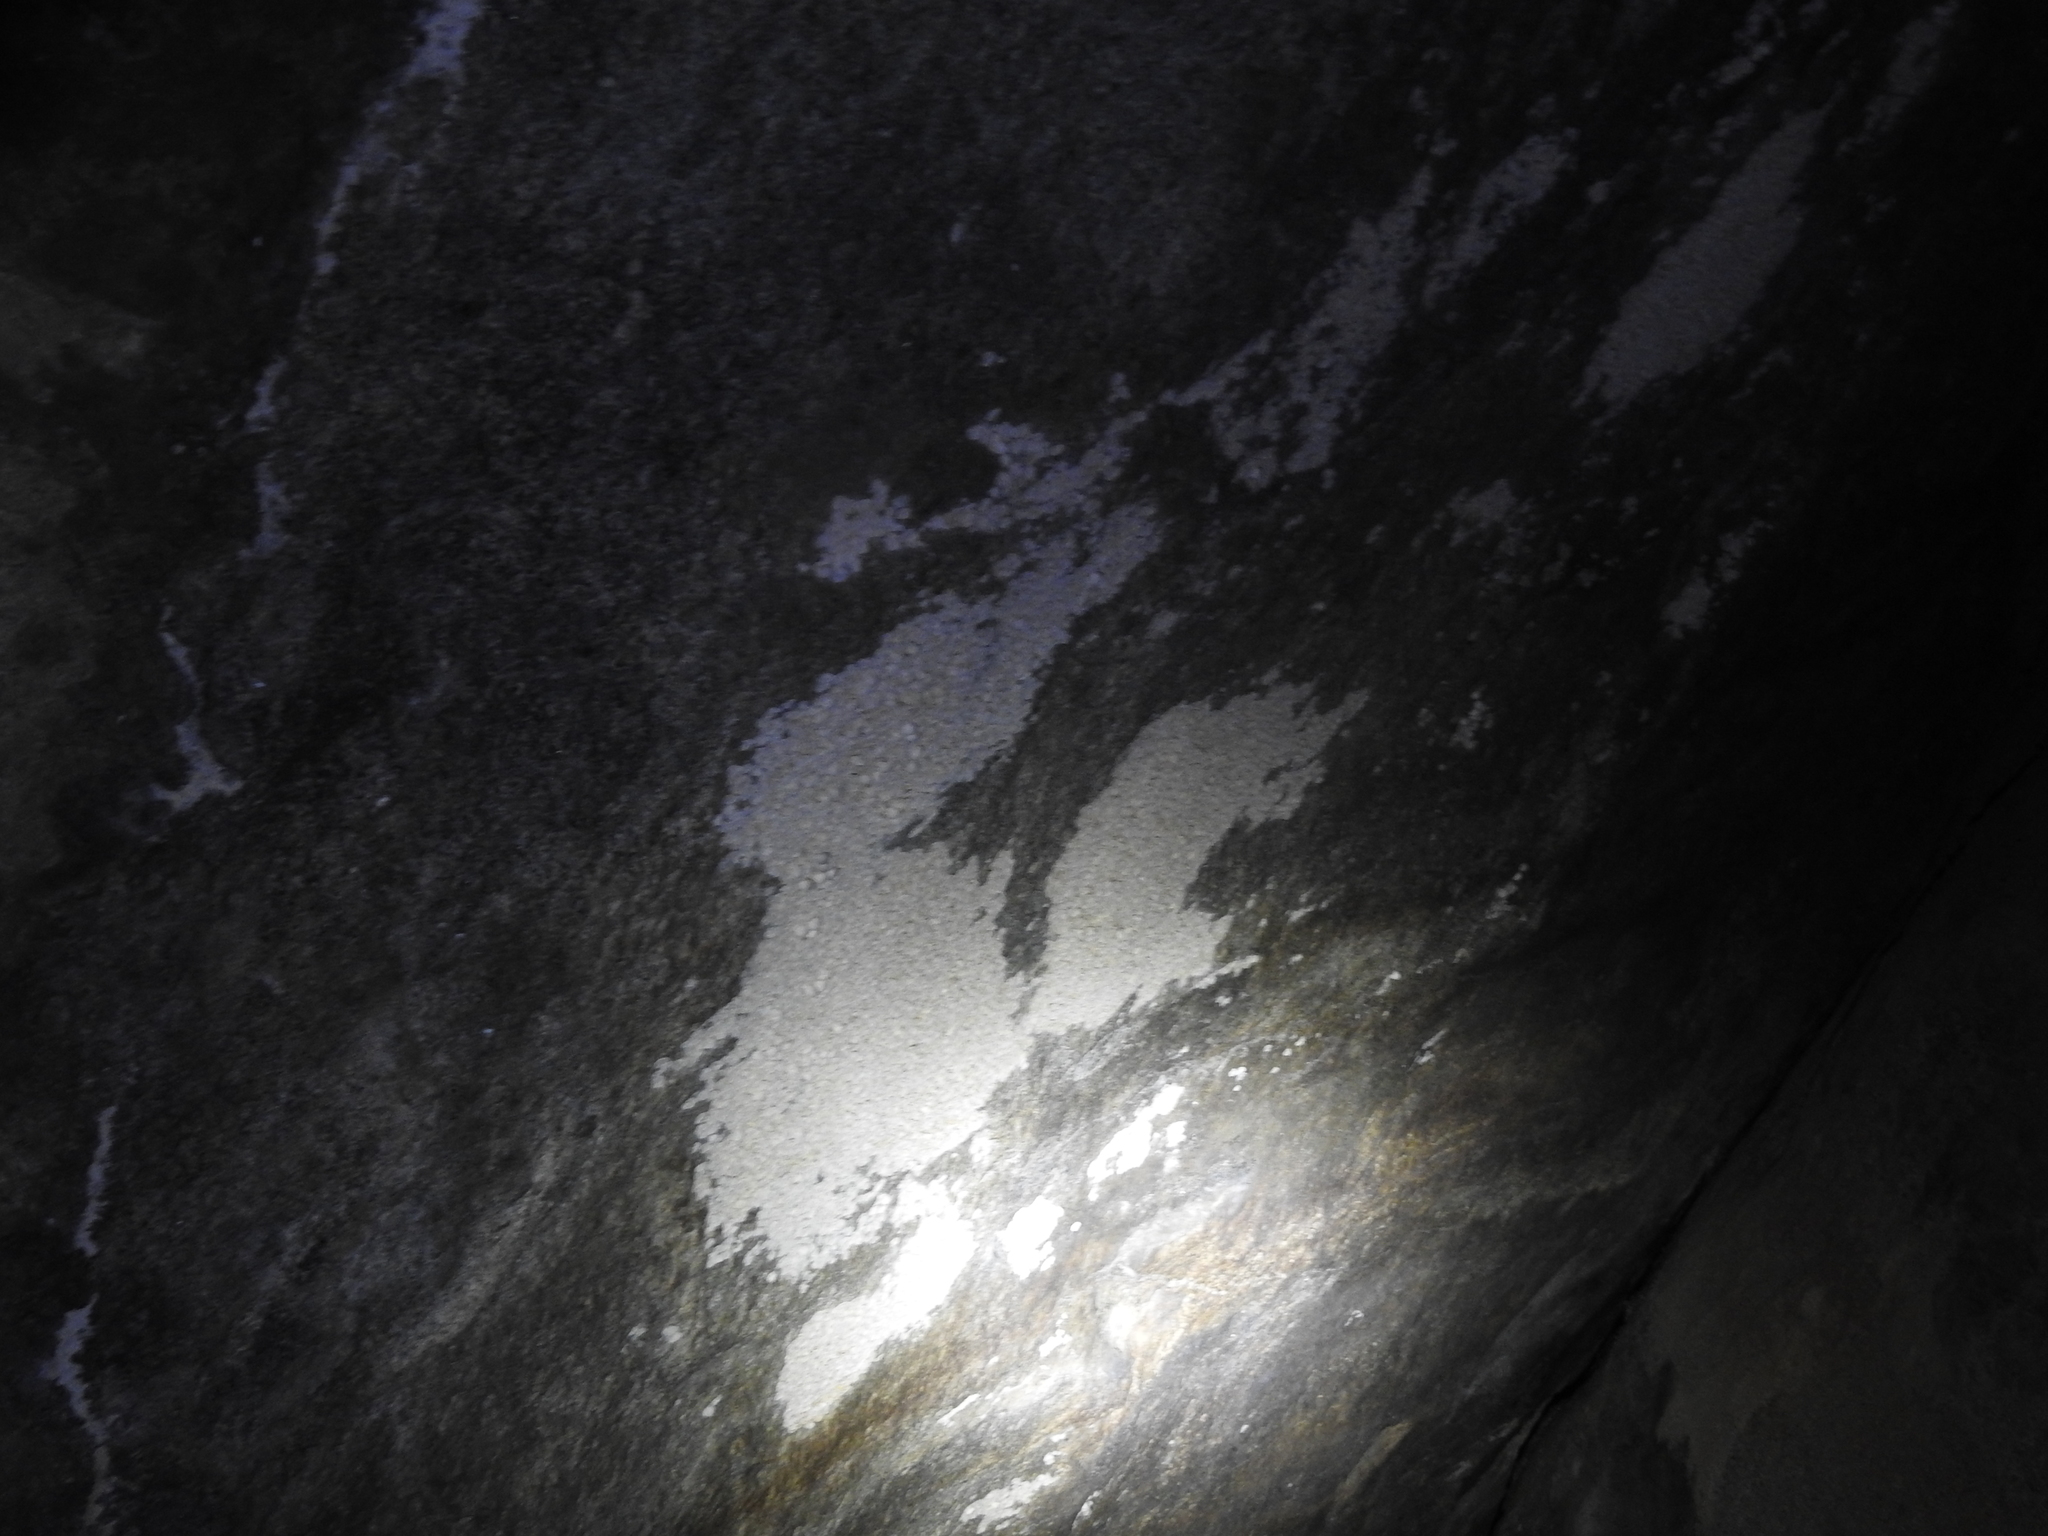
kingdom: Animalia
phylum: Chordata
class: Squamata
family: Gekkonidae
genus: Calodactylodes
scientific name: Calodactylodes aureus
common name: Indian golden gecko
